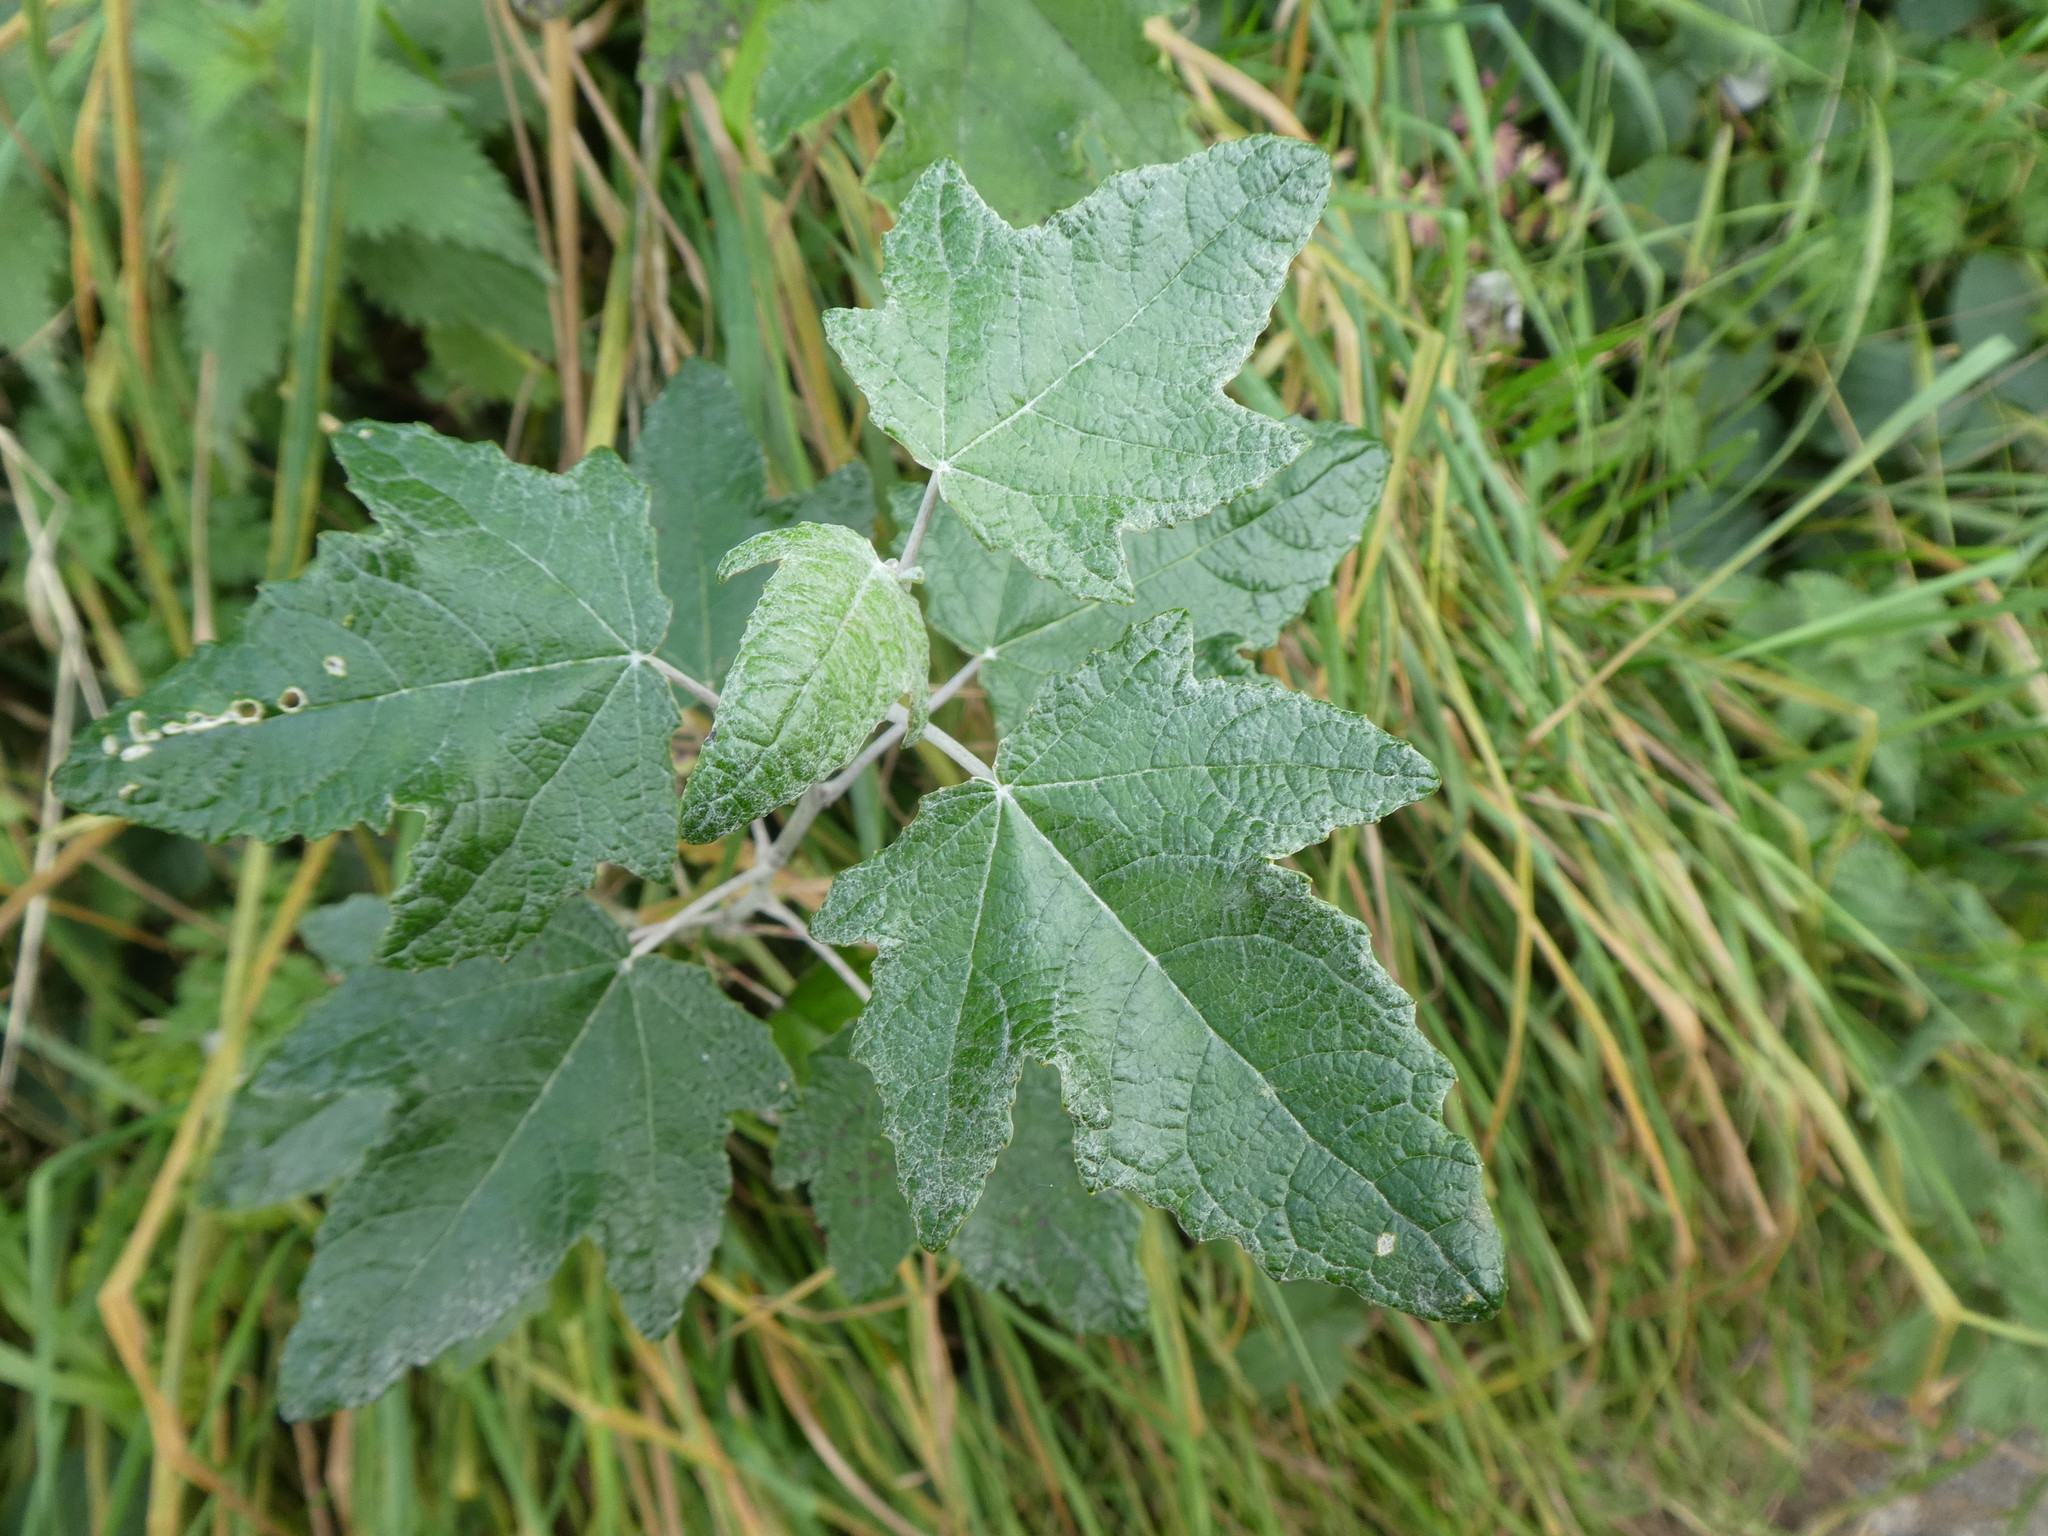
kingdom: Plantae
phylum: Tracheophyta
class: Magnoliopsida
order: Malpighiales
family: Salicaceae
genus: Populus
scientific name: Populus alba
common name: White poplar
